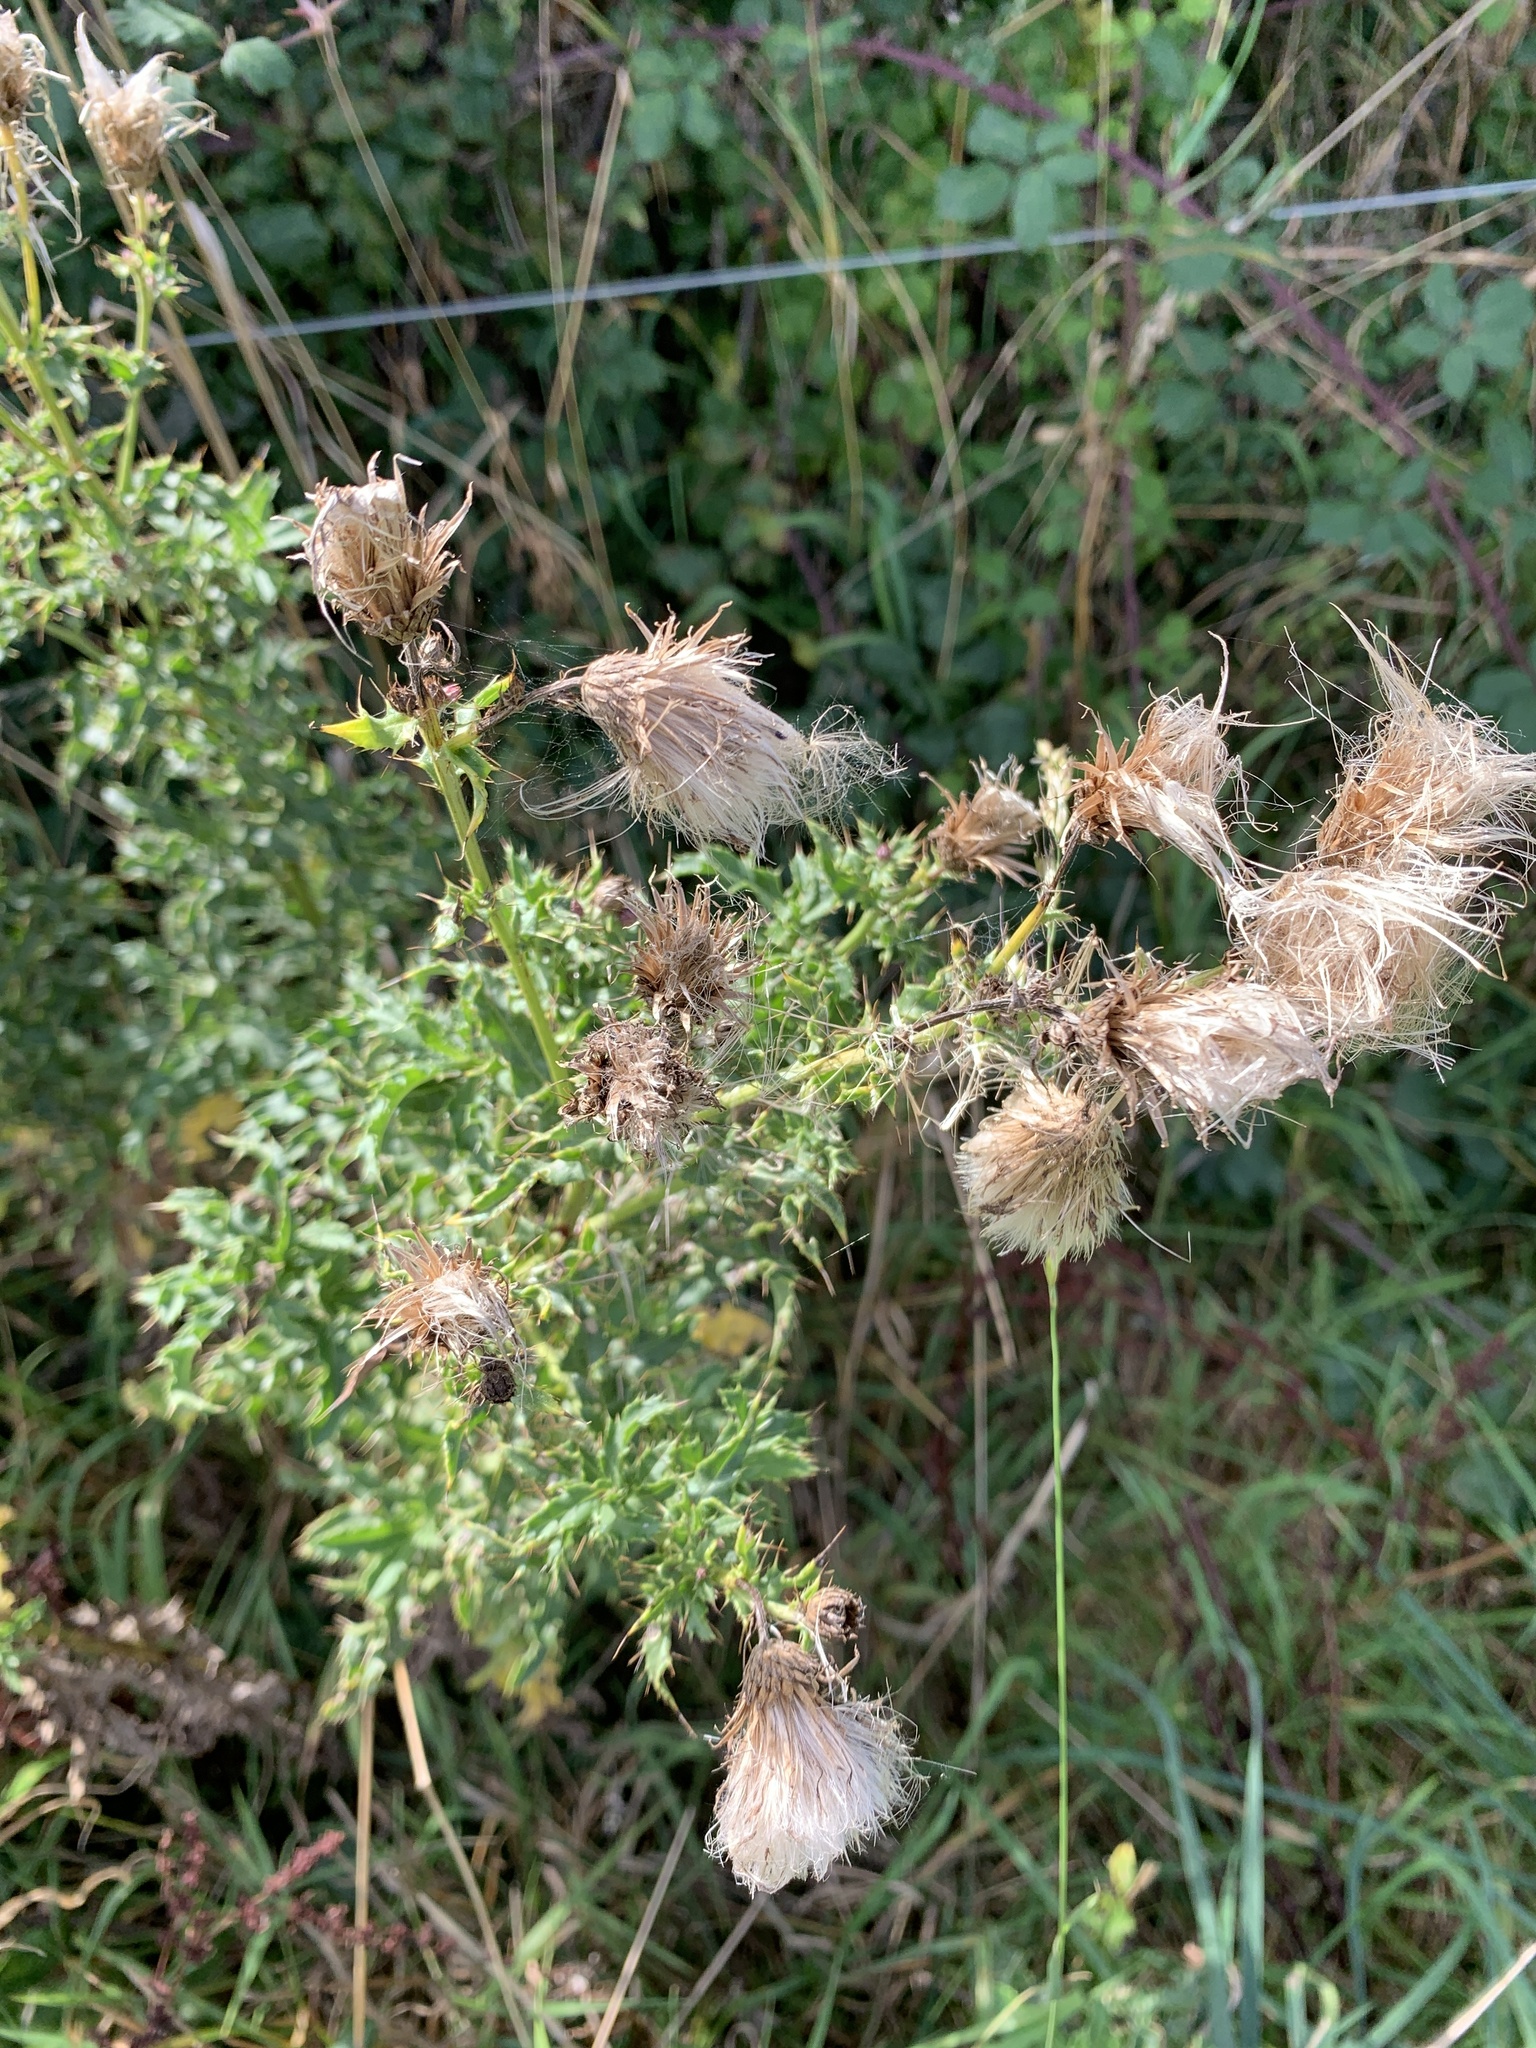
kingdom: Plantae
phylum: Tracheophyta
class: Magnoliopsida
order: Asterales
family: Asteraceae
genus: Cirsium
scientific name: Cirsium arvense
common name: Creeping thistle
